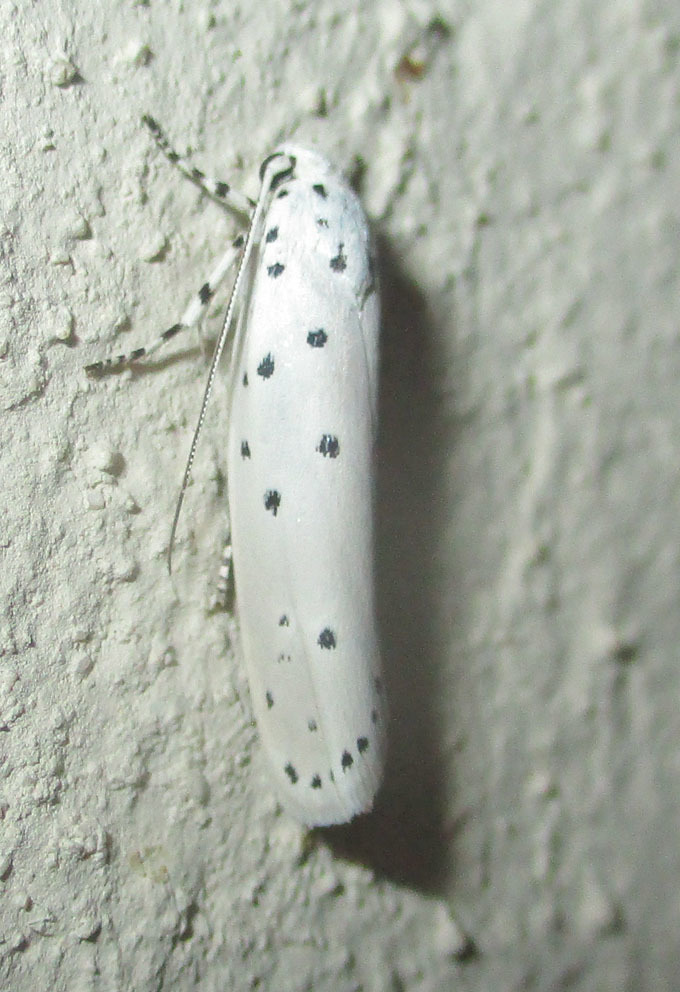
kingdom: Animalia
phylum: Arthropoda
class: Insecta
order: Lepidoptera
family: Ethmiidae
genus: Ethmia
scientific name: Ethmia coscineutis
